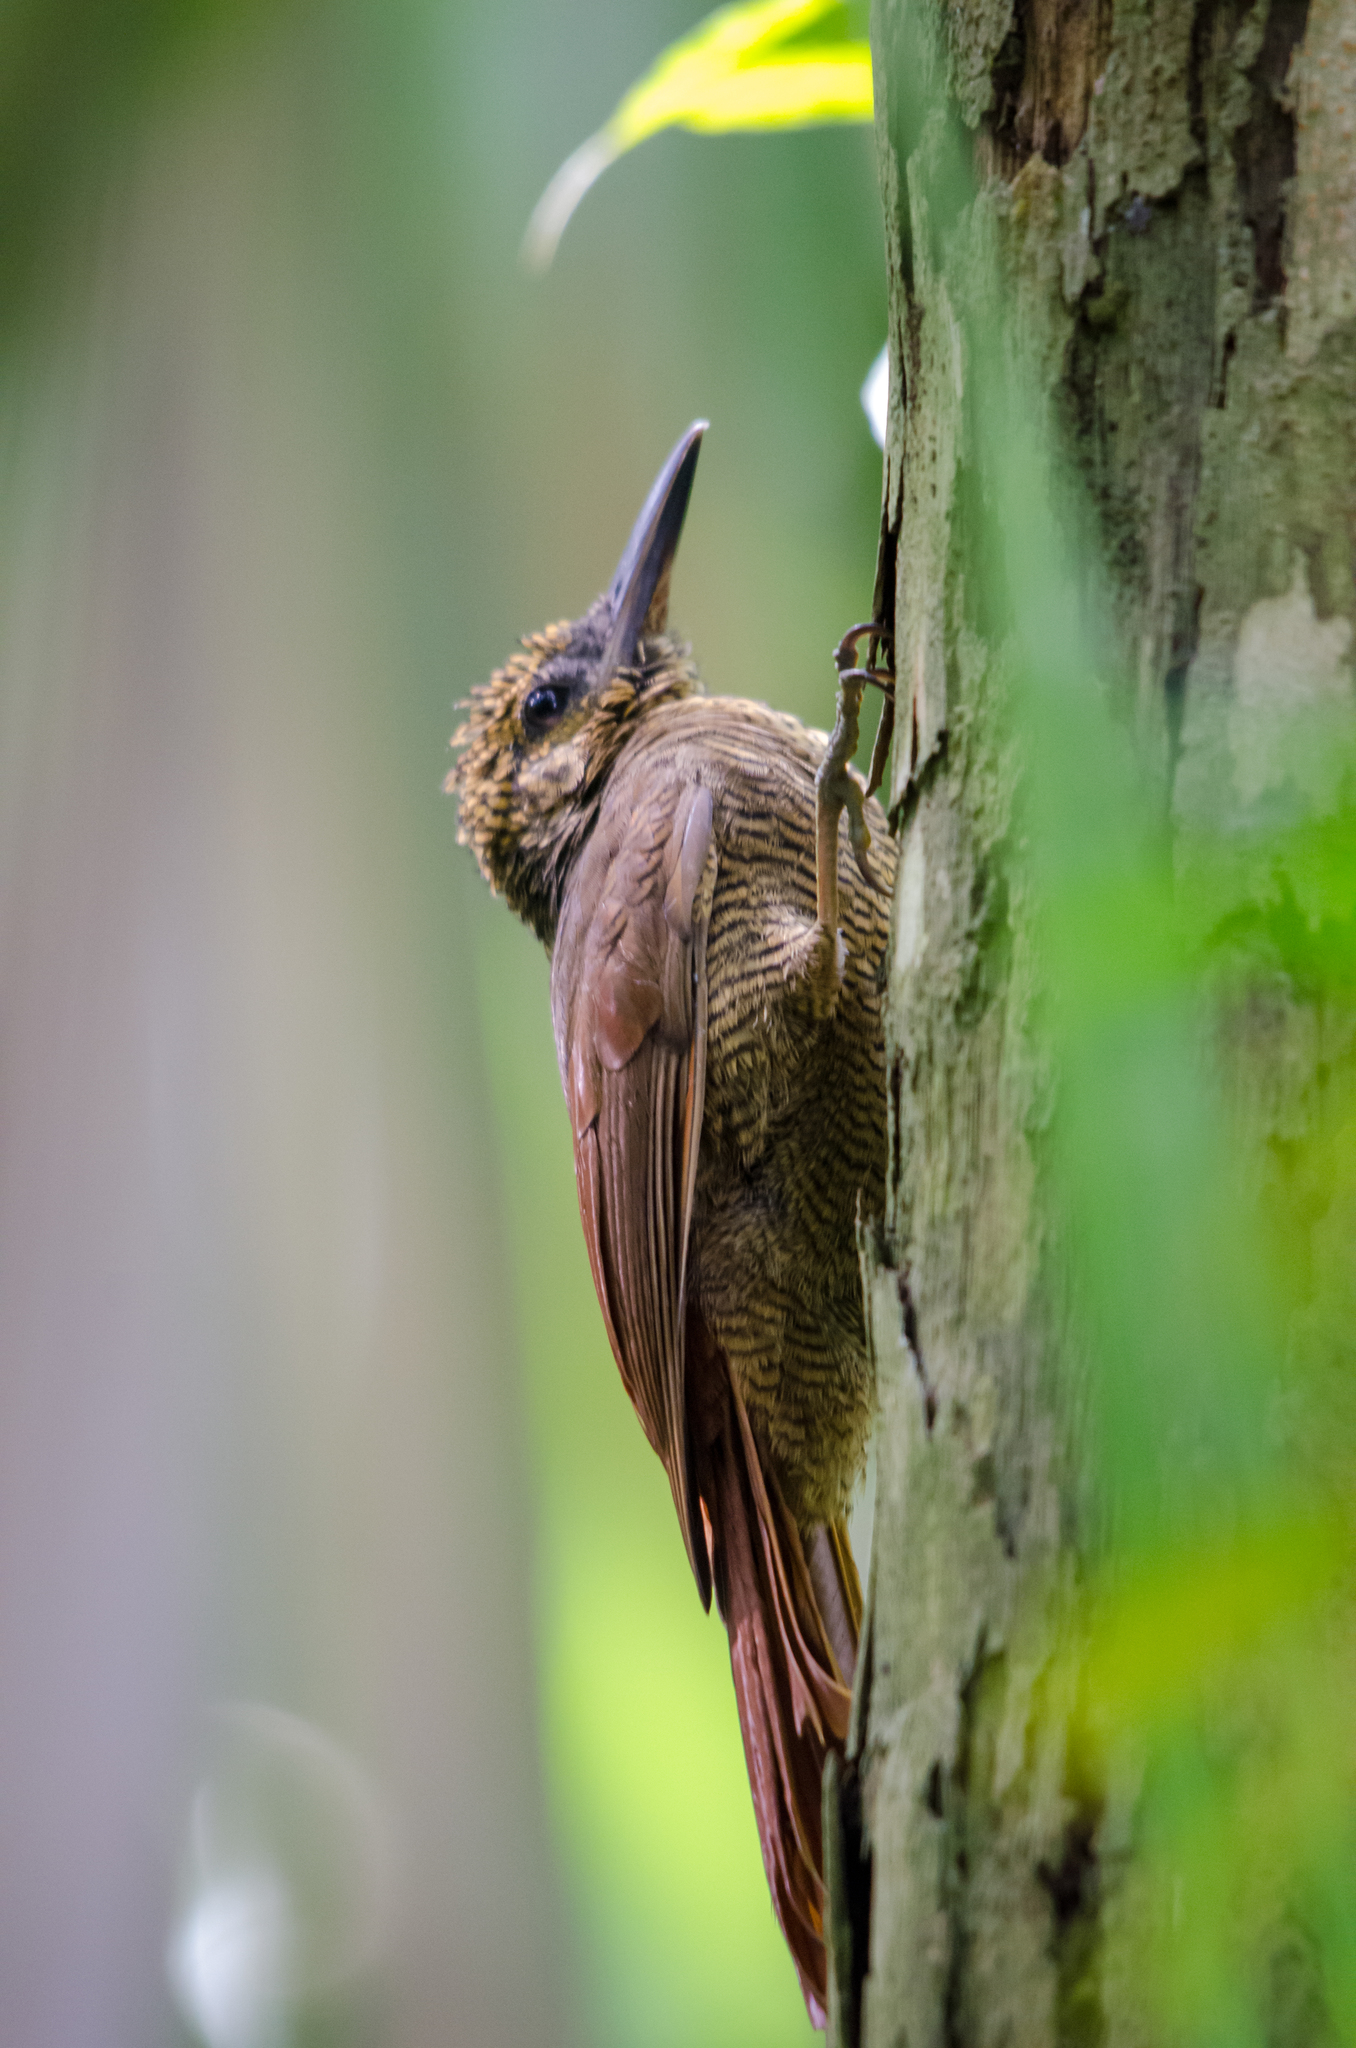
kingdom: Animalia
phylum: Chordata
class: Aves
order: Passeriformes
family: Furnariidae
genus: Dendrocolaptes
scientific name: Dendrocolaptes sanctithomae
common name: Northern barred-woodcreeper
